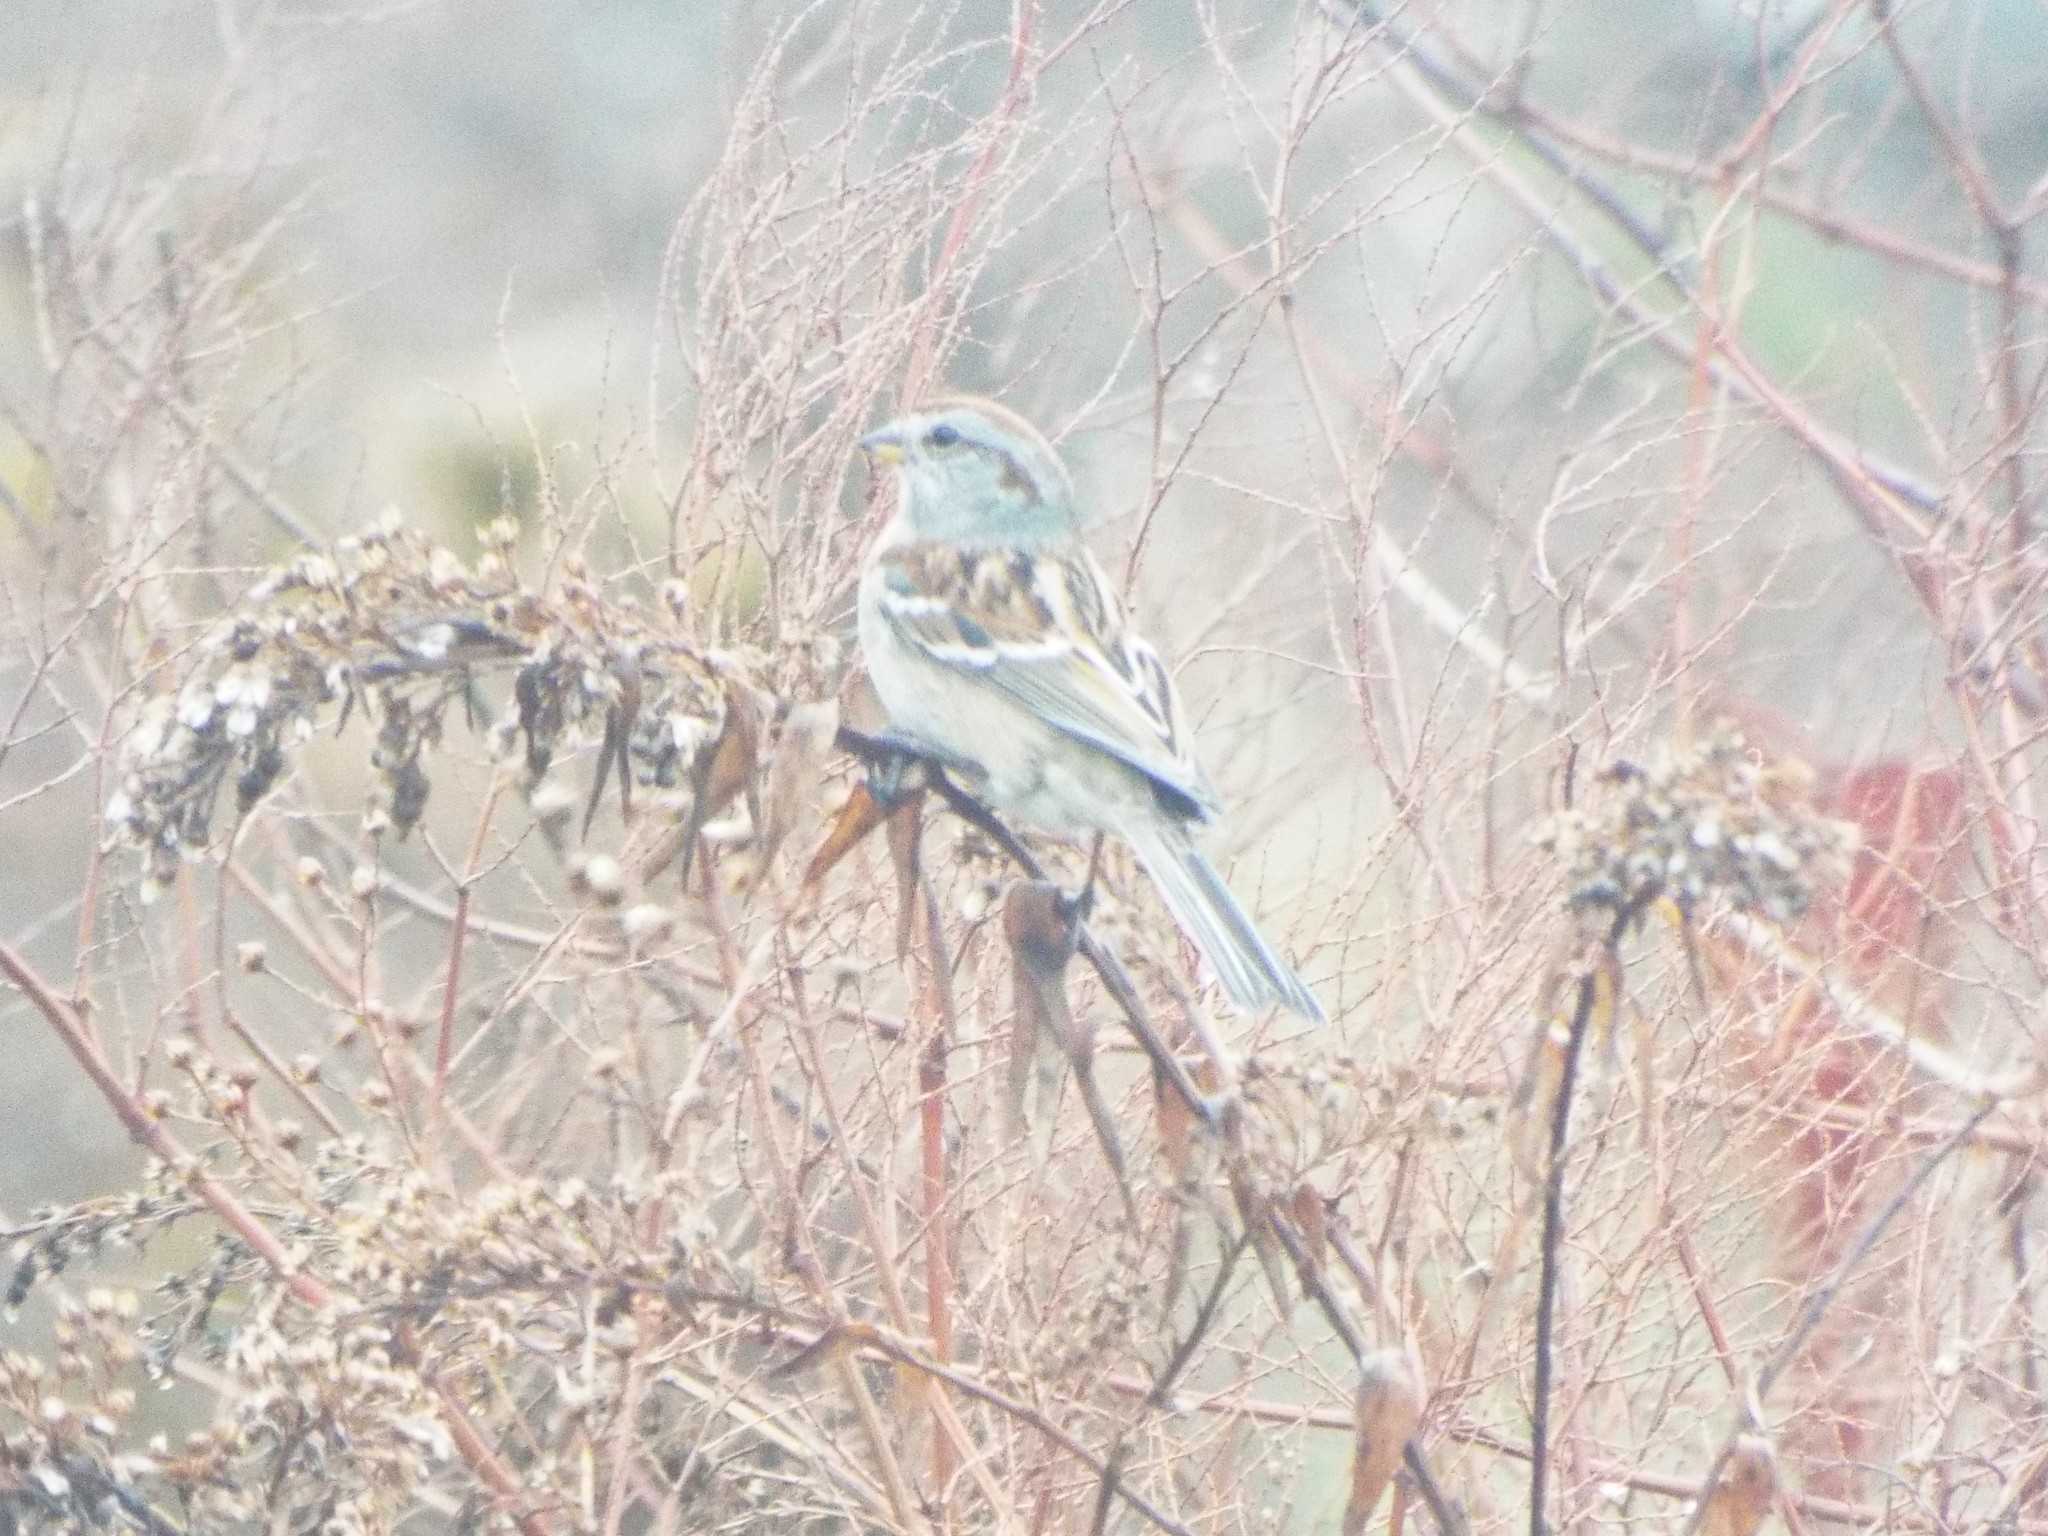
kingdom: Animalia
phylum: Chordata
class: Aves
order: Passeriformes
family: Passerellidae
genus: Spizelloides
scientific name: Spizelloides arborea
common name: American tree sparrow
